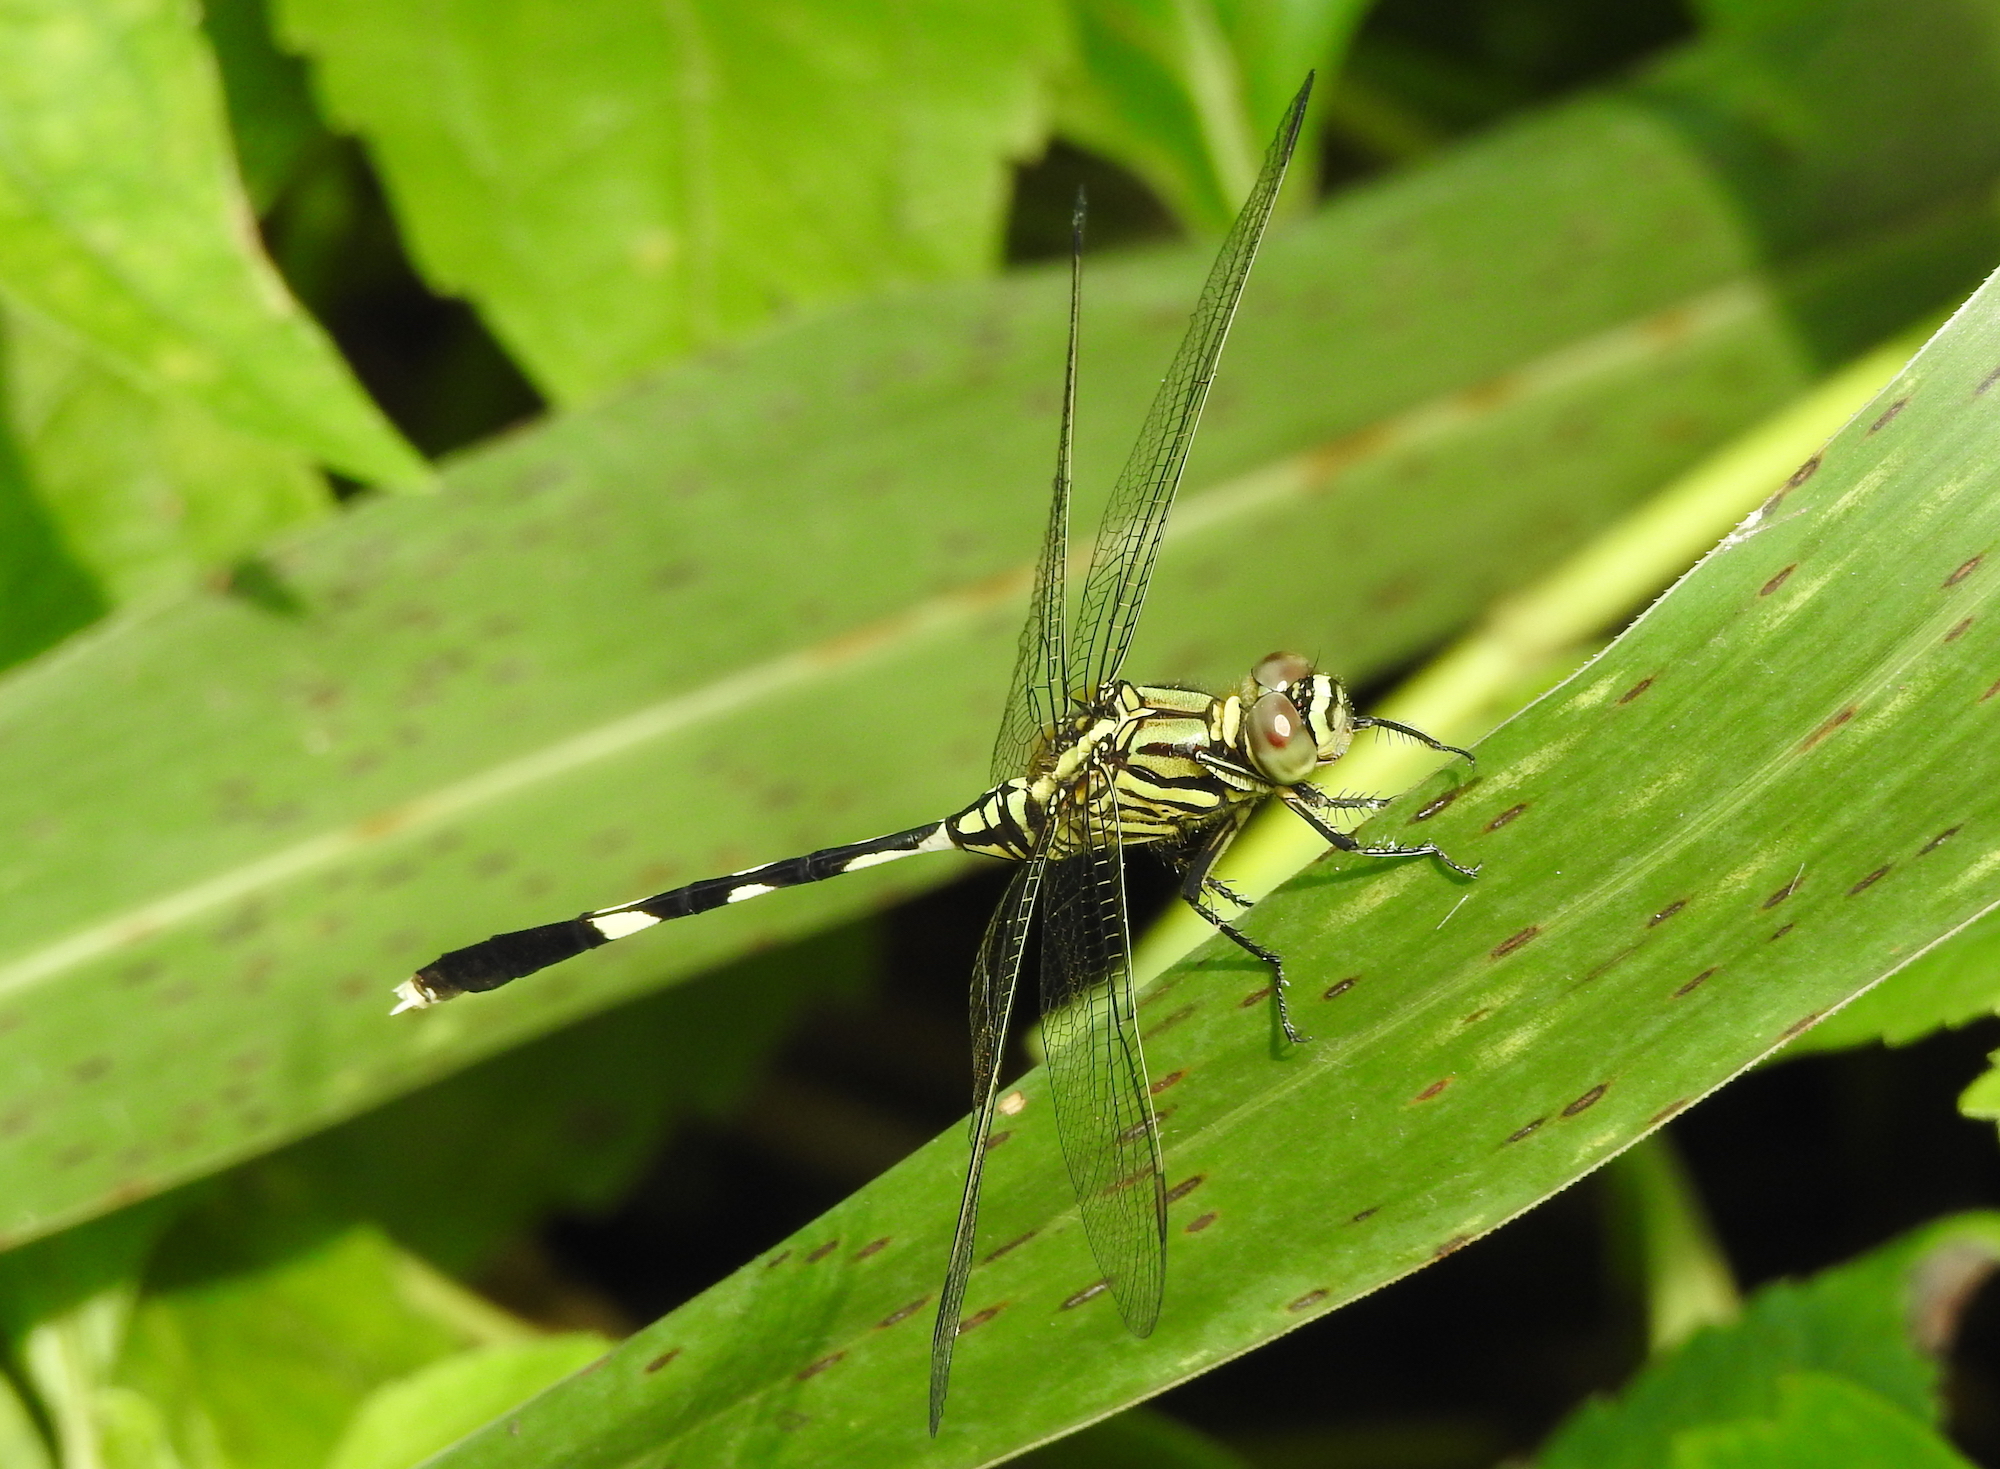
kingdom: Animalia
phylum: Arthropoda
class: Insecta
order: Odonata
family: Libellulidae
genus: Orthetrum
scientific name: Orthetrum sabina
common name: Slender skimmer
